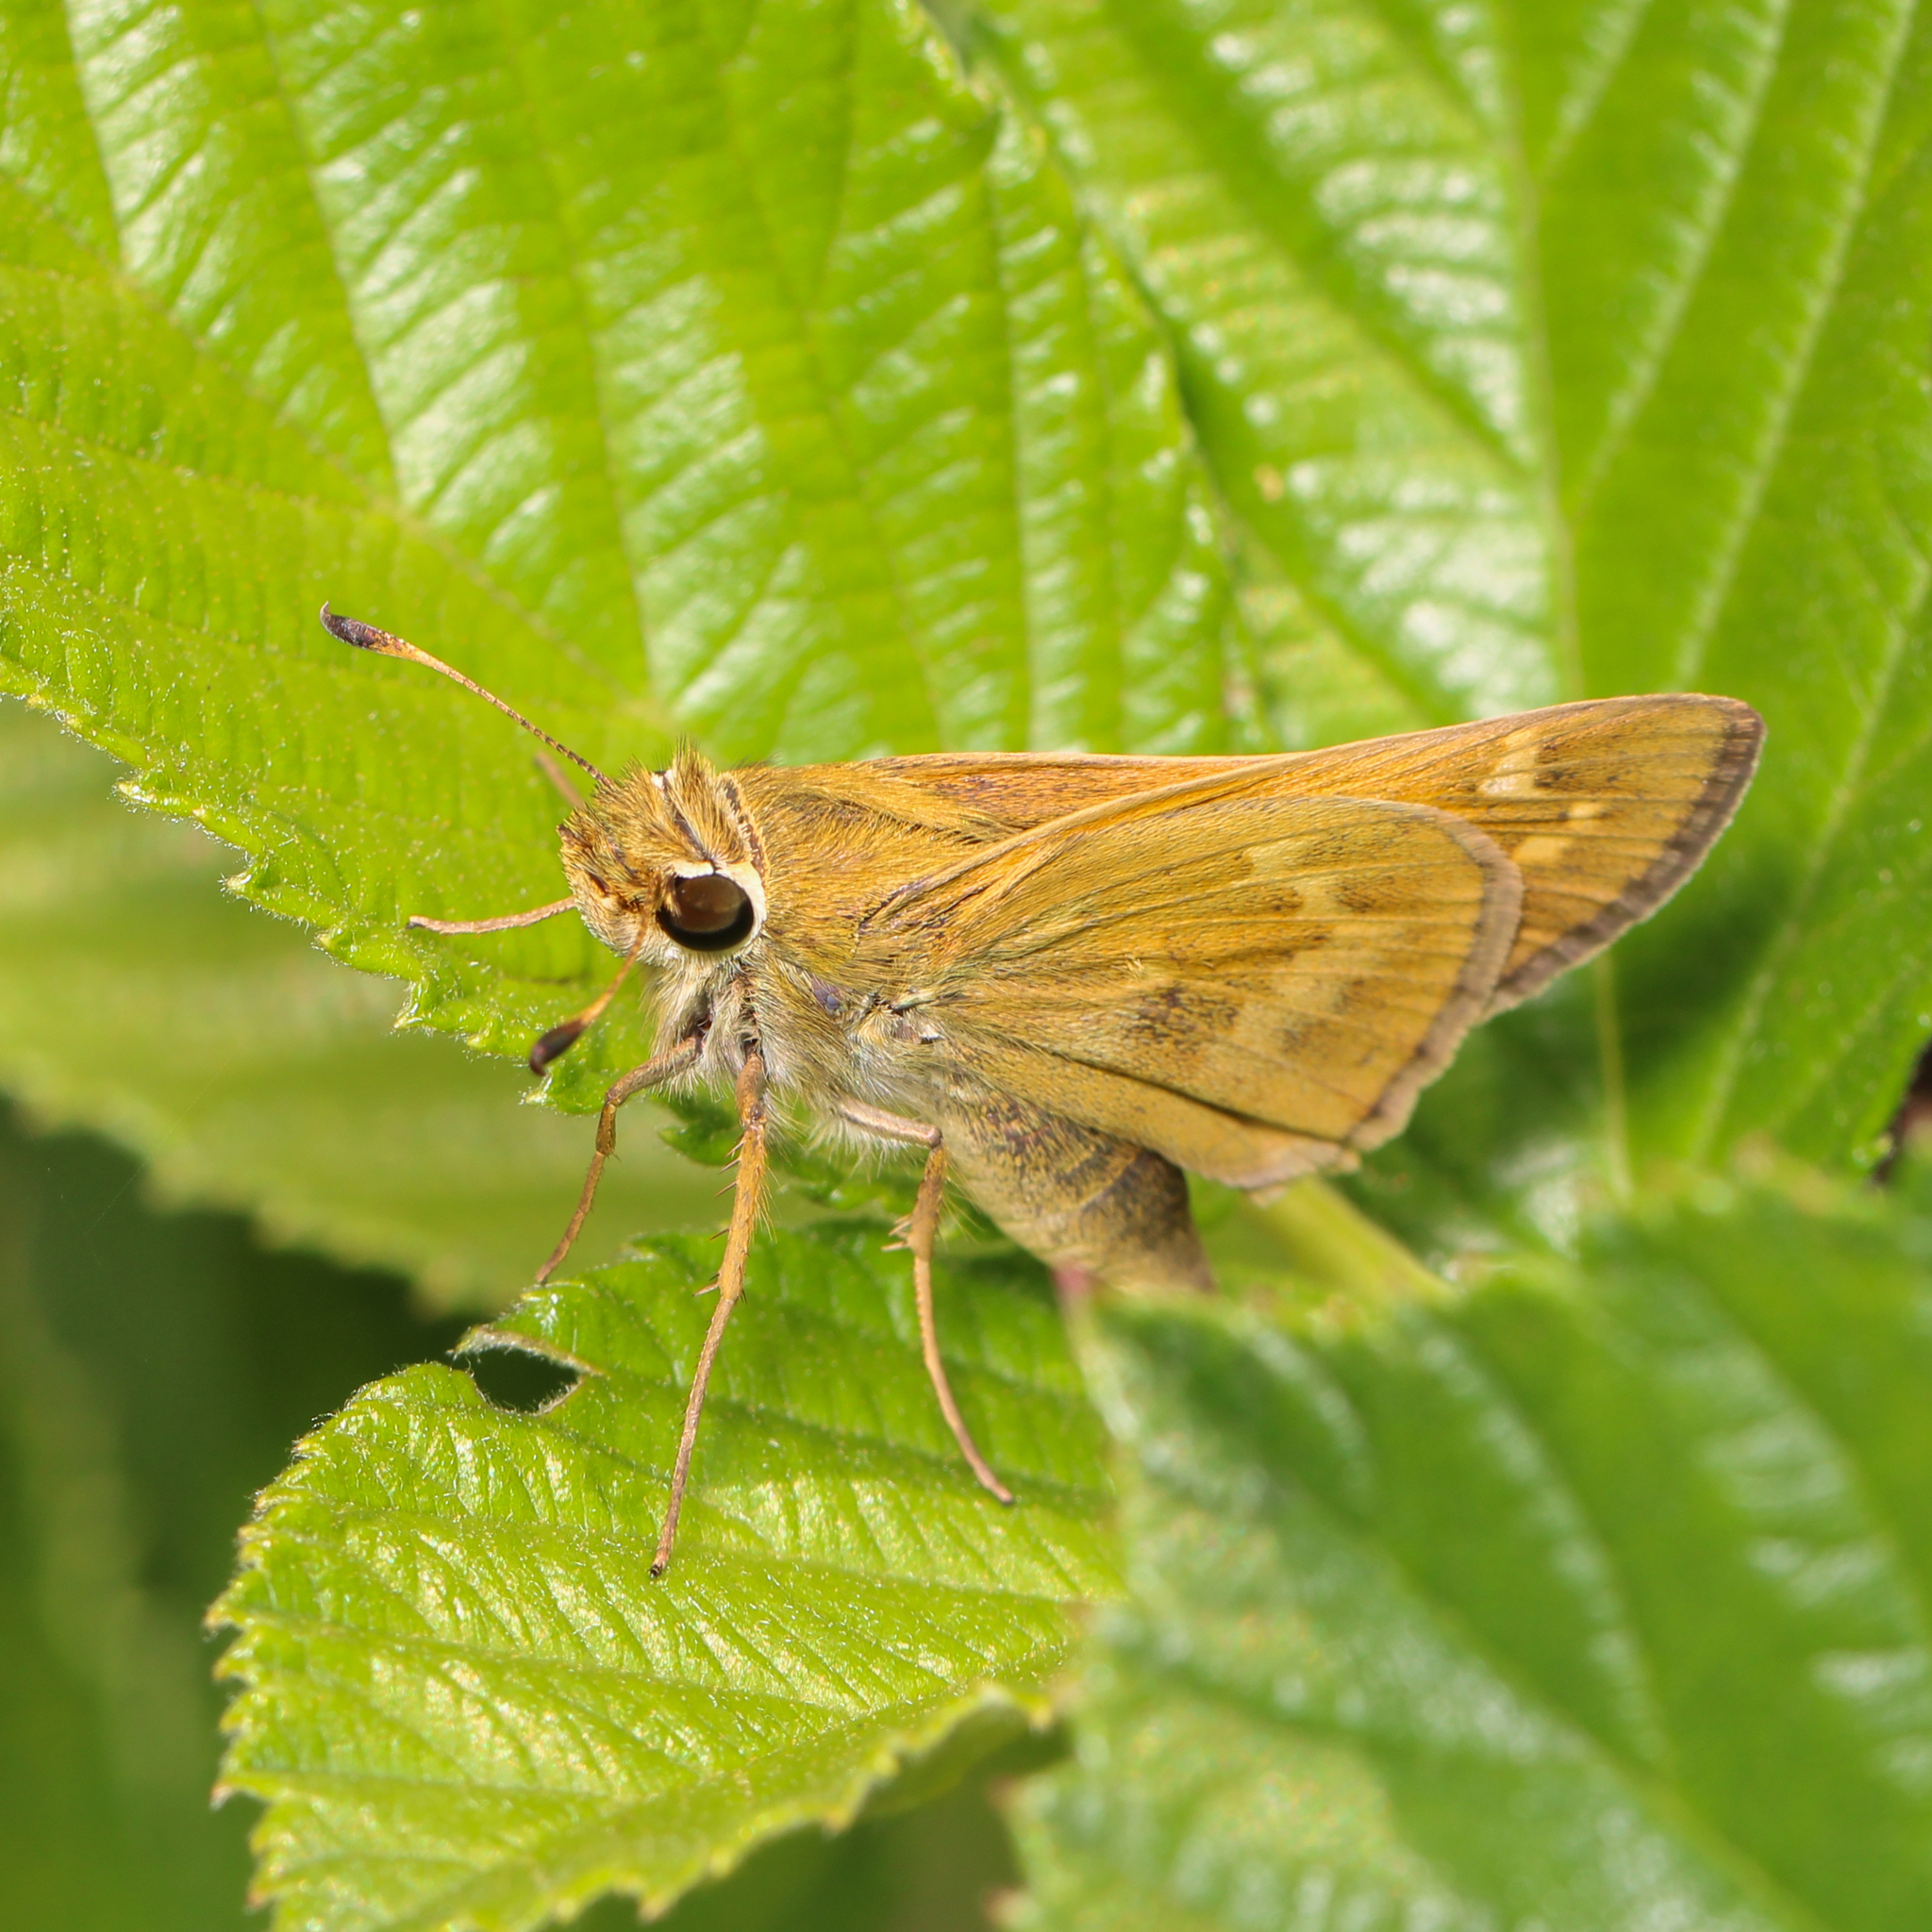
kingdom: Animalia
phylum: Arthropoda
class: Insecta
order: Lepidoptera
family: Hesperiidae
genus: Atalopedes
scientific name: Atalopedes
